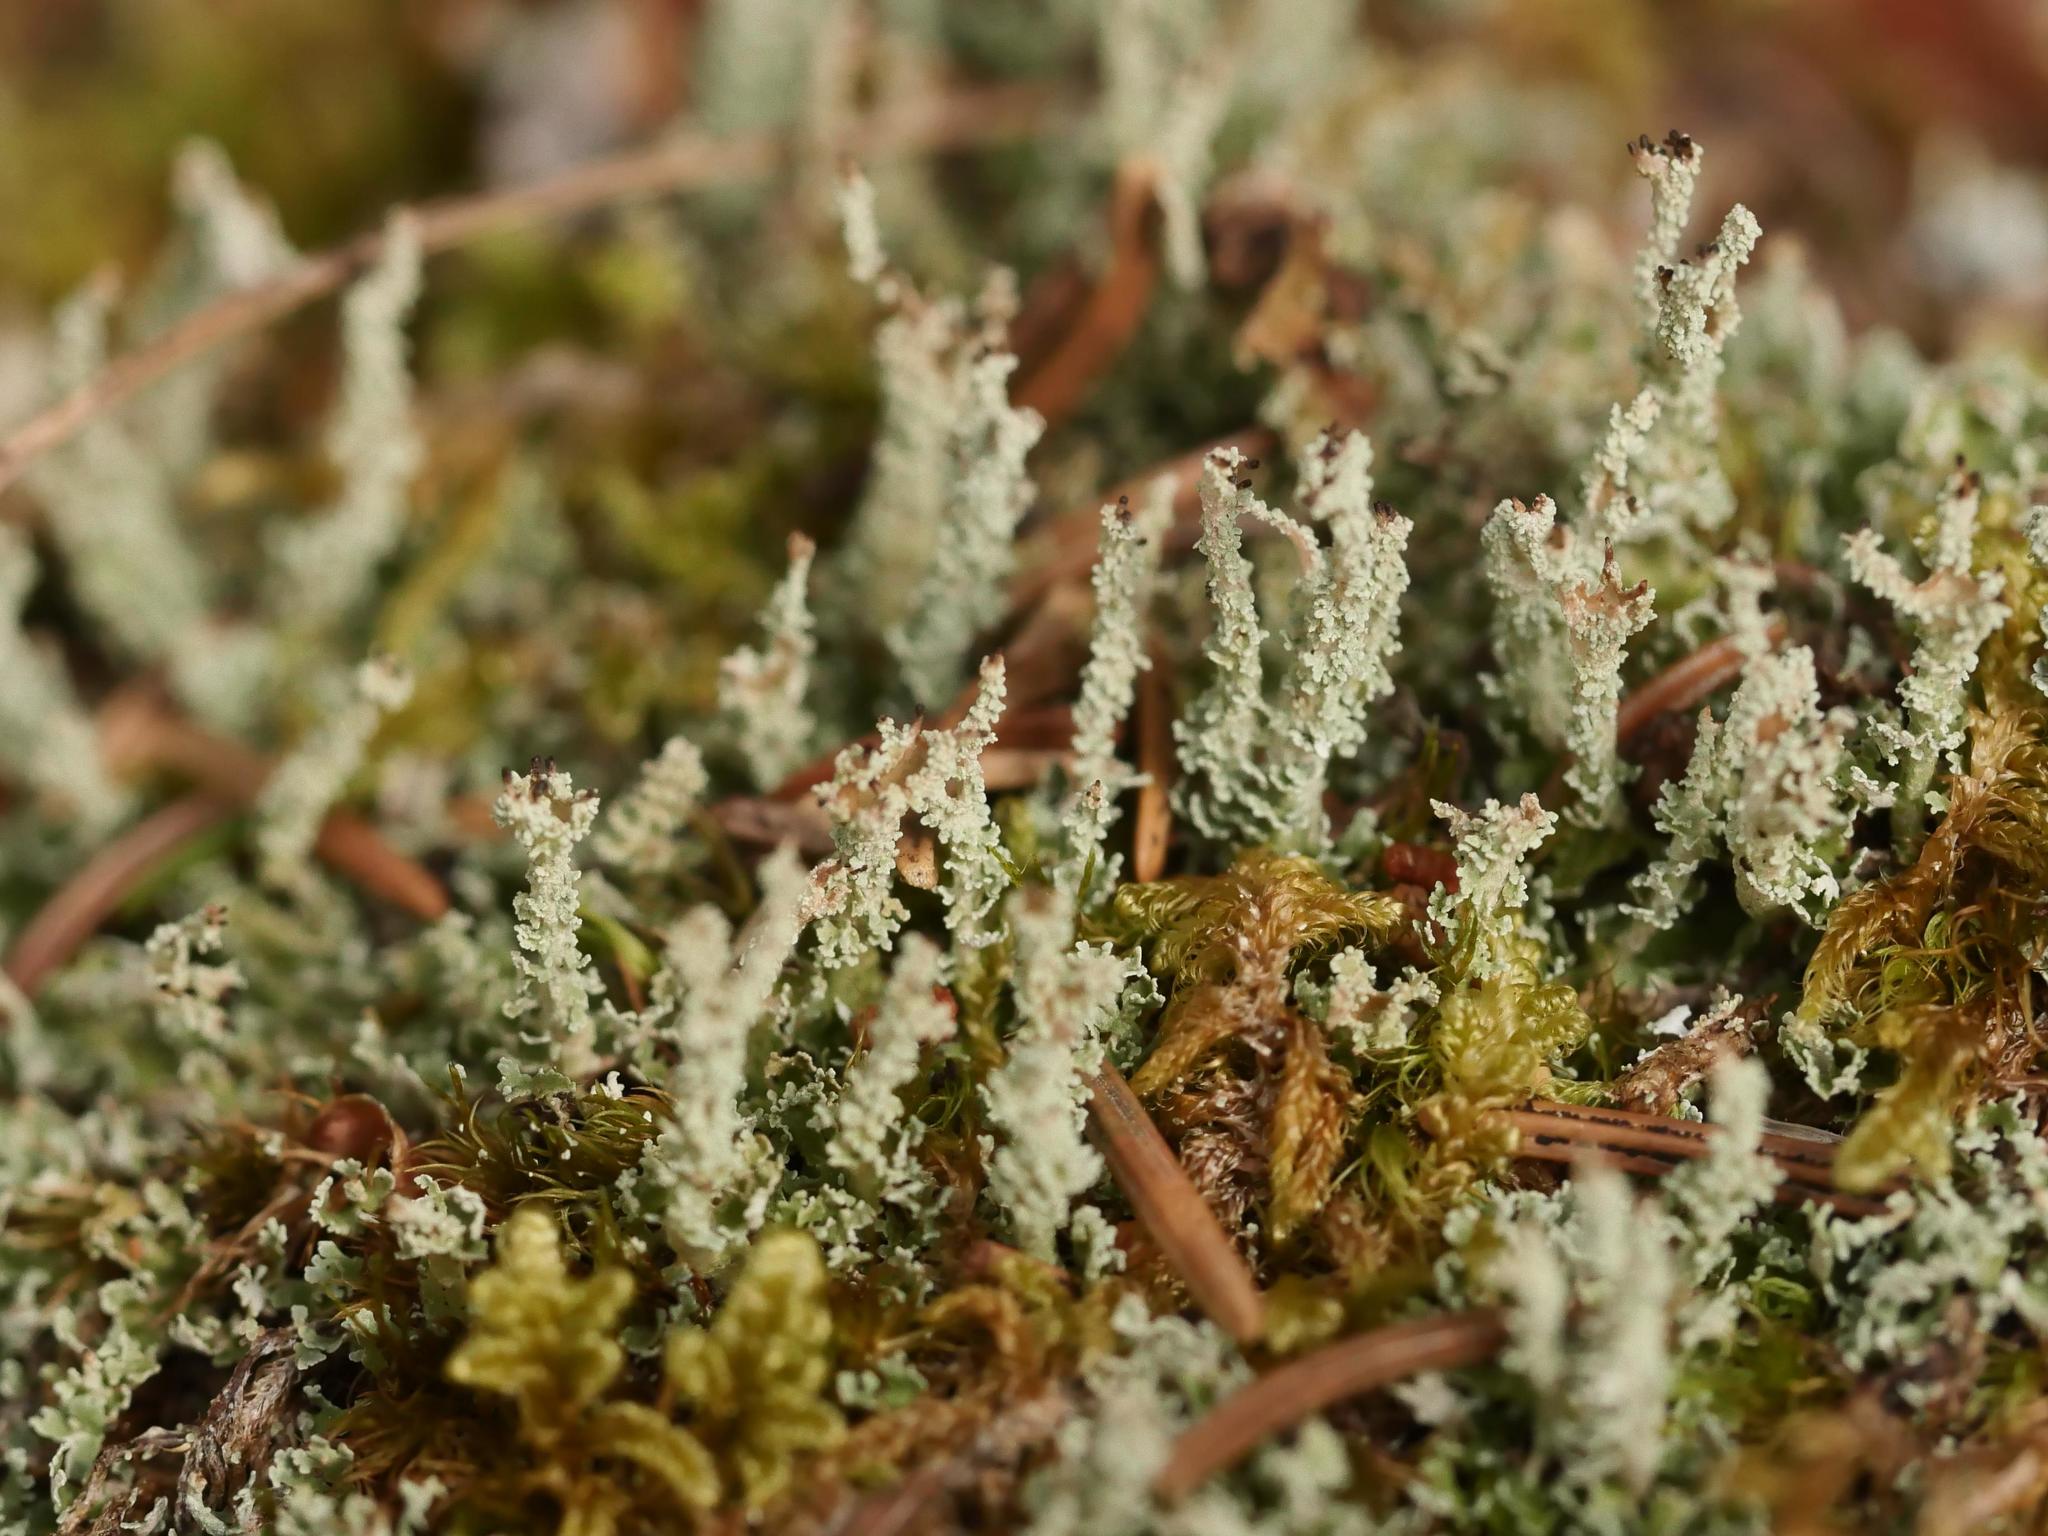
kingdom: Fungi
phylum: Ascomycota
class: Lecanoromycetes
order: Lecanorales
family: Cladoniaceae
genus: Cladonia
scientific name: Cladonia squamosa
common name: Dragon horn
